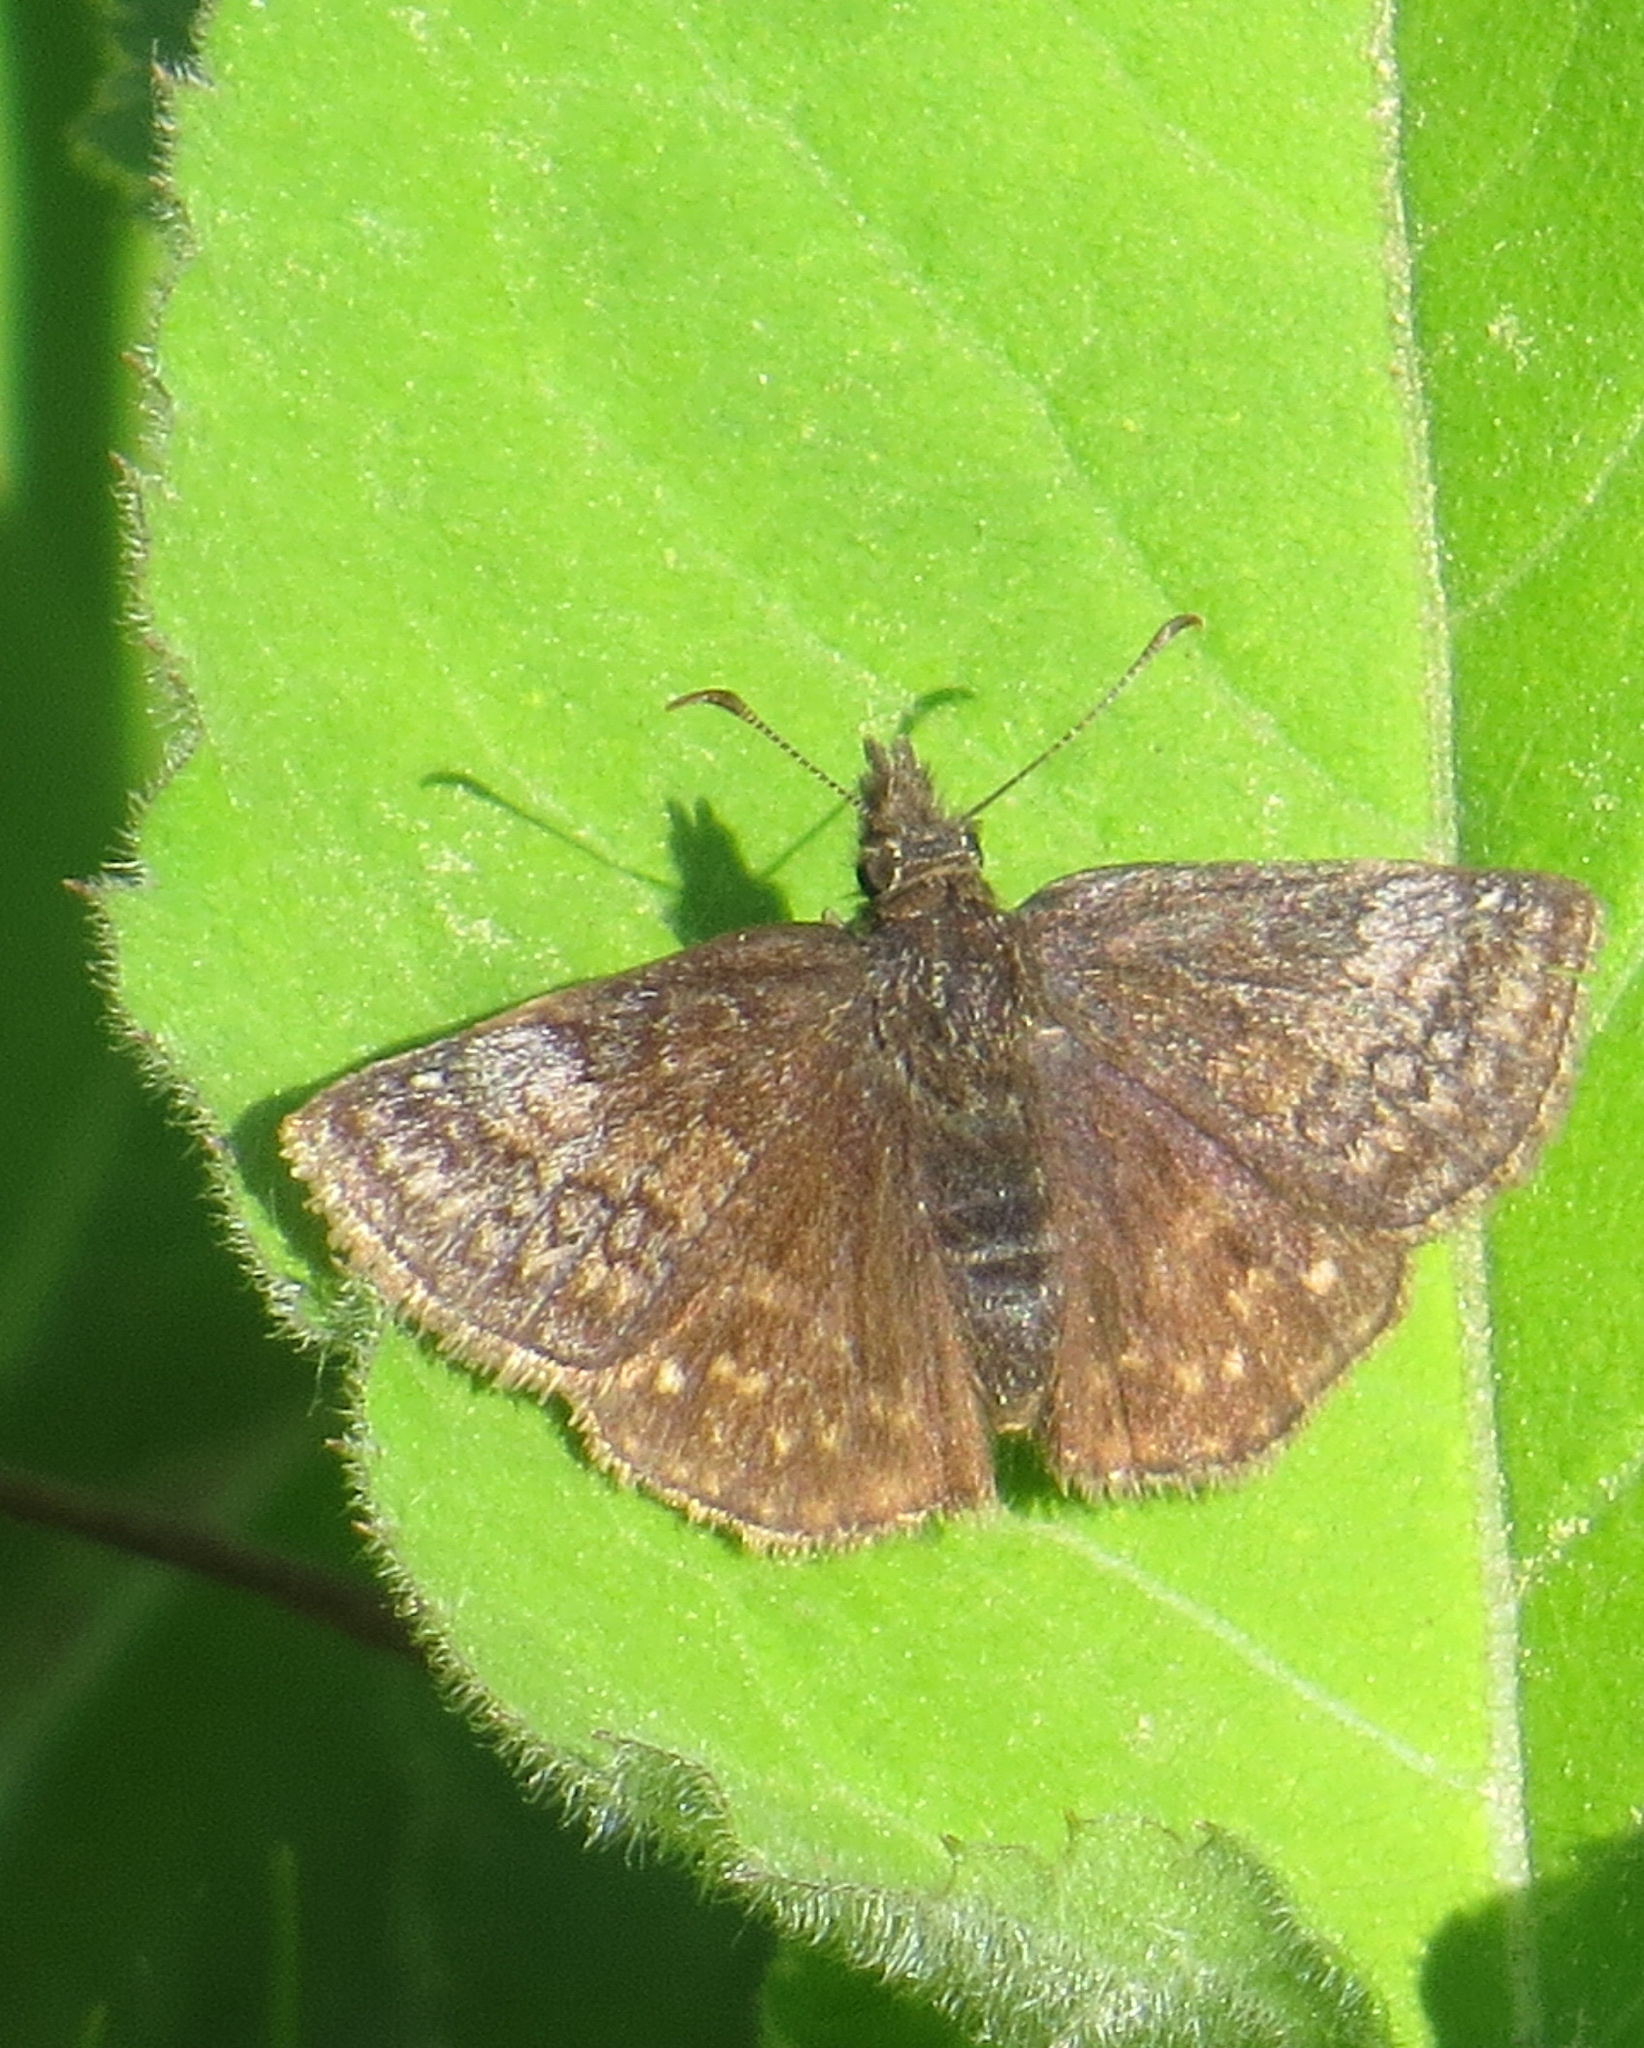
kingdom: Animalia
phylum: Arthropoda
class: Insecta
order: Lepidoptera
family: Hesperiidae
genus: Erynnis
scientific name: Erynnis icelus
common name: Dreamy duskywing
